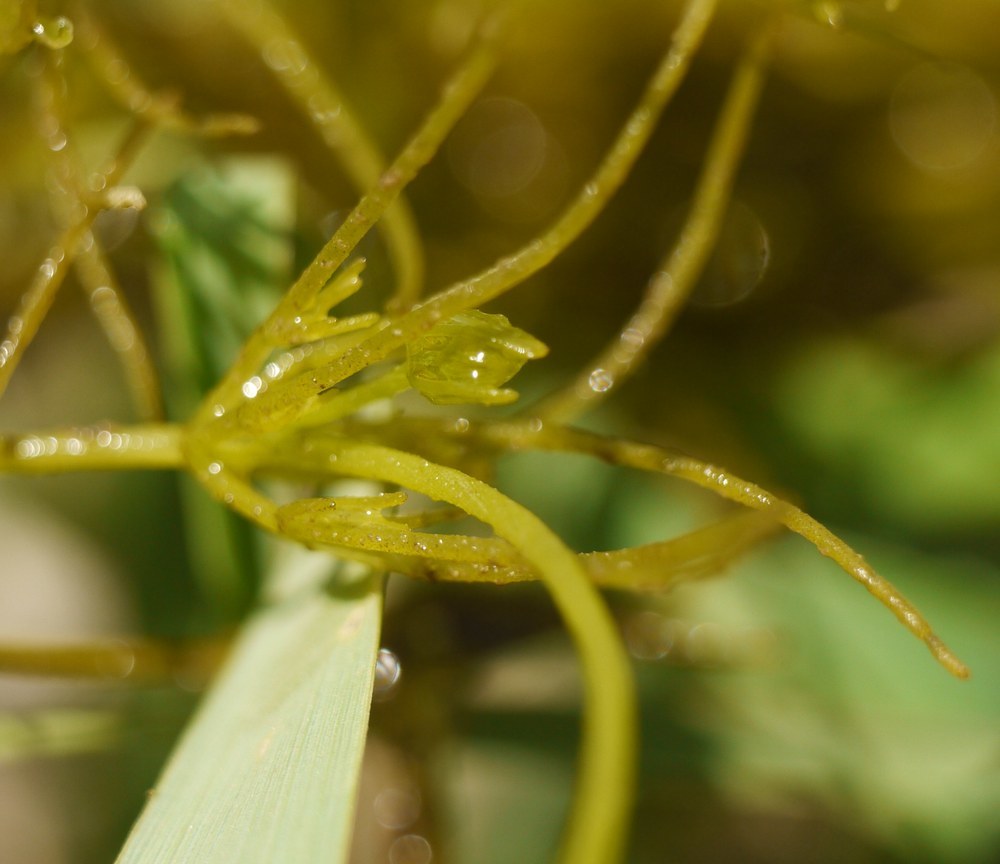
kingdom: Plantae
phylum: Charophyta
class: Charophyceae
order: Charales
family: Characeae
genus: Chara
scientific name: Chara
